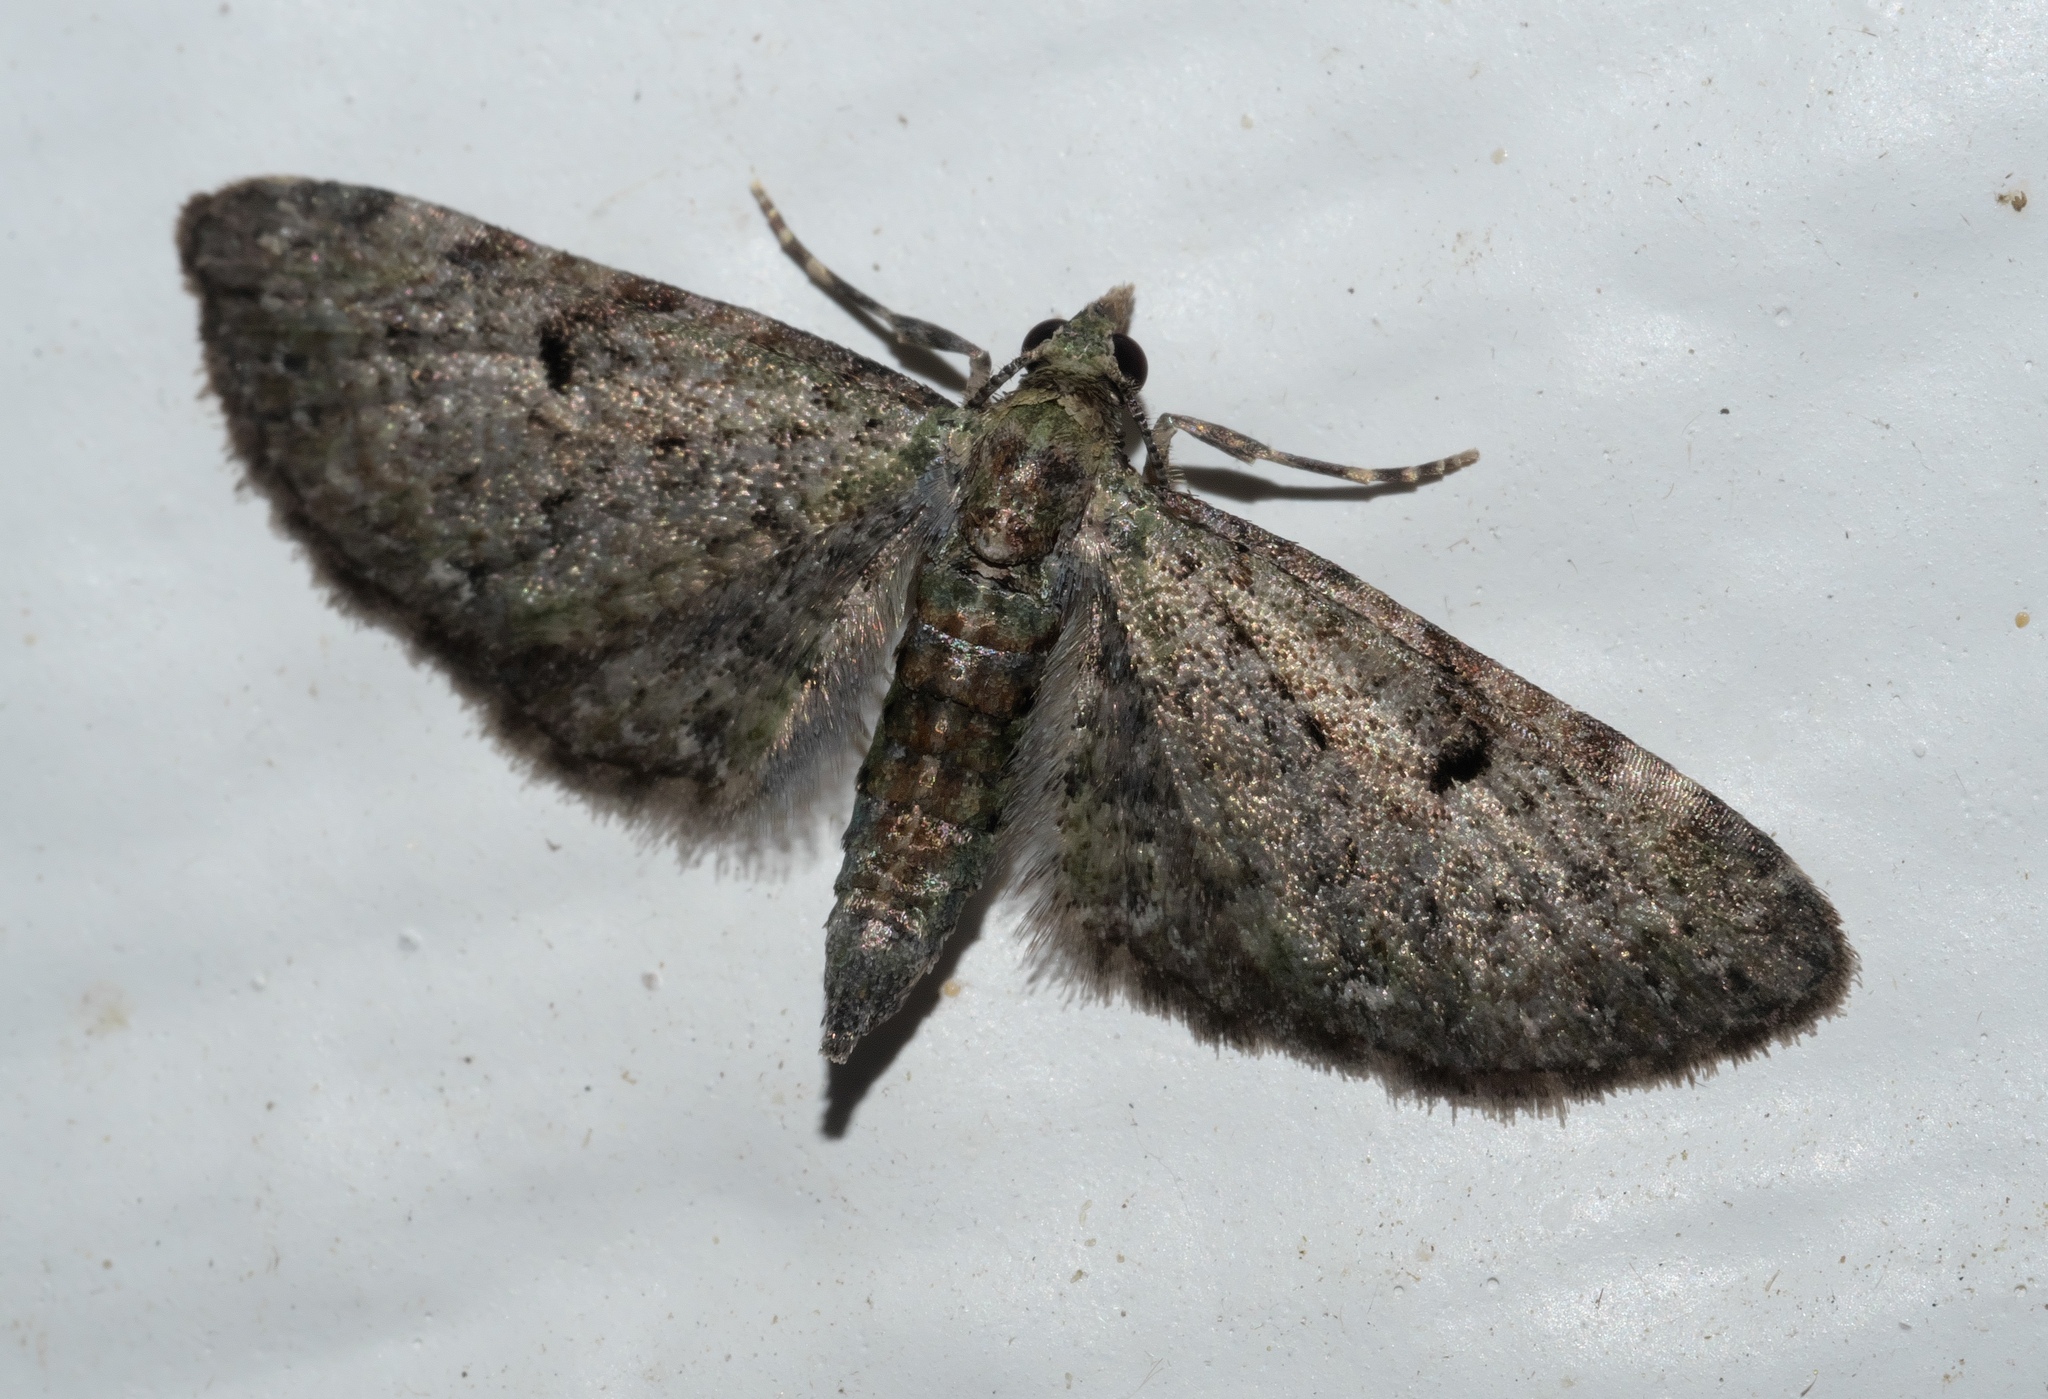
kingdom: Animalia
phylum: Arthropoda
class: Insecta
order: Lepidoptera
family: Geometridae
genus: Eupithecia
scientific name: Eupithecia miserulata
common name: Common eupithecia
